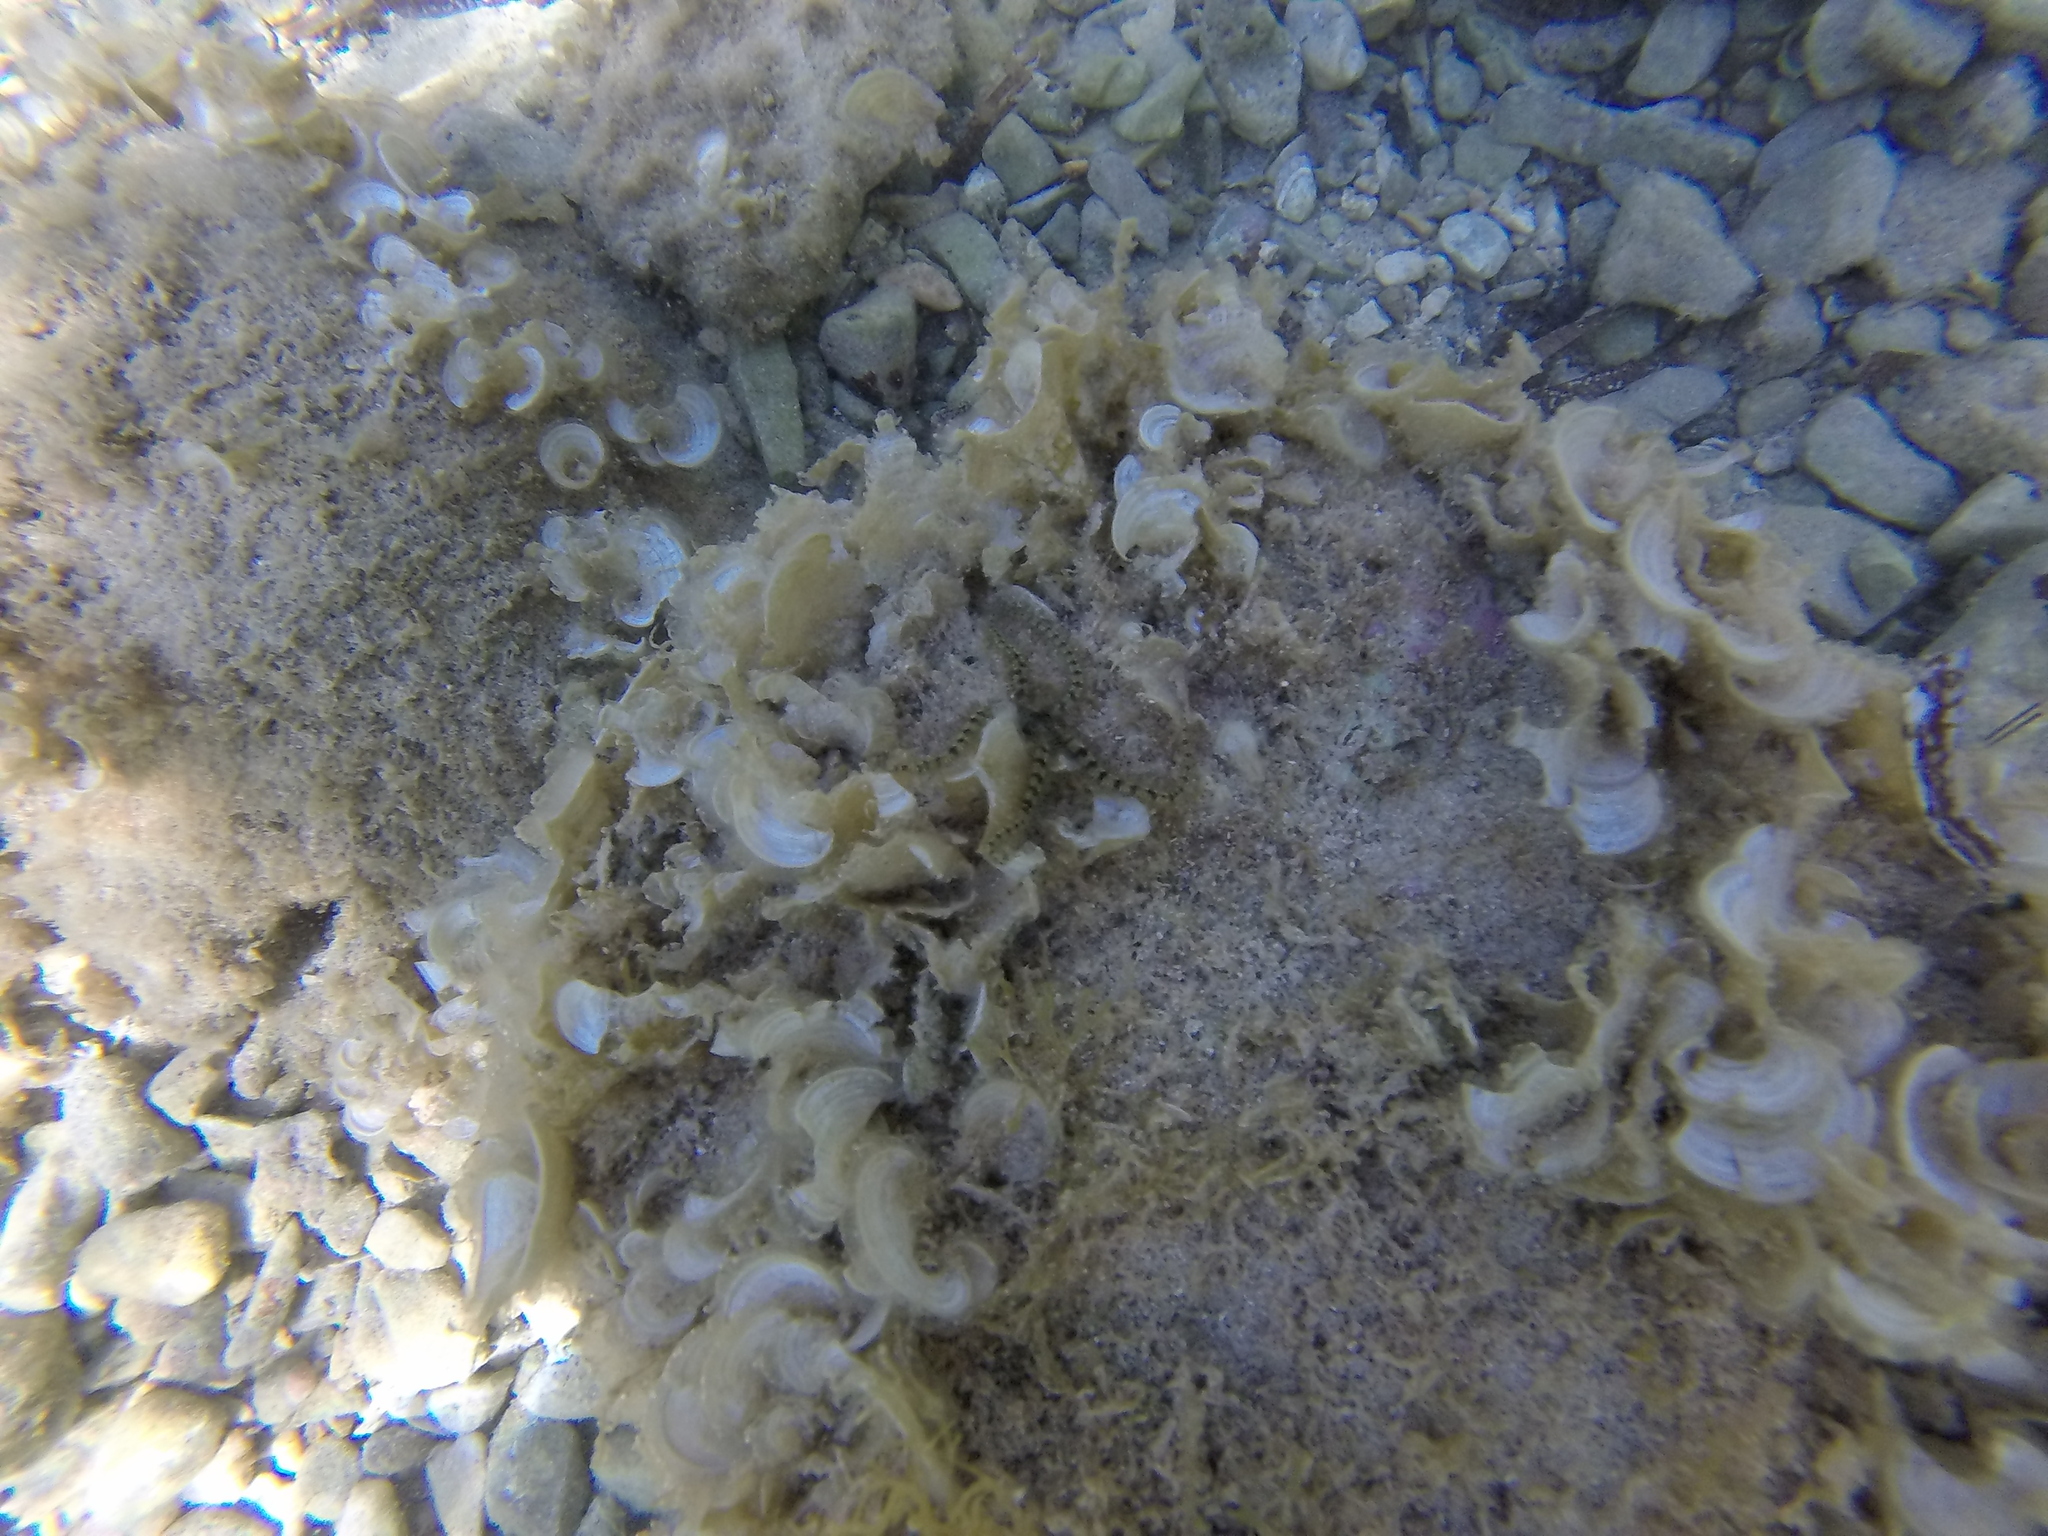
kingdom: Animalia
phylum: Echinodermata
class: Ophiuroidea
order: Amphilepidida
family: Ophiotrichidae
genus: Ophiothrix
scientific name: Ophiothrix fragilis
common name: Common brittlestar
